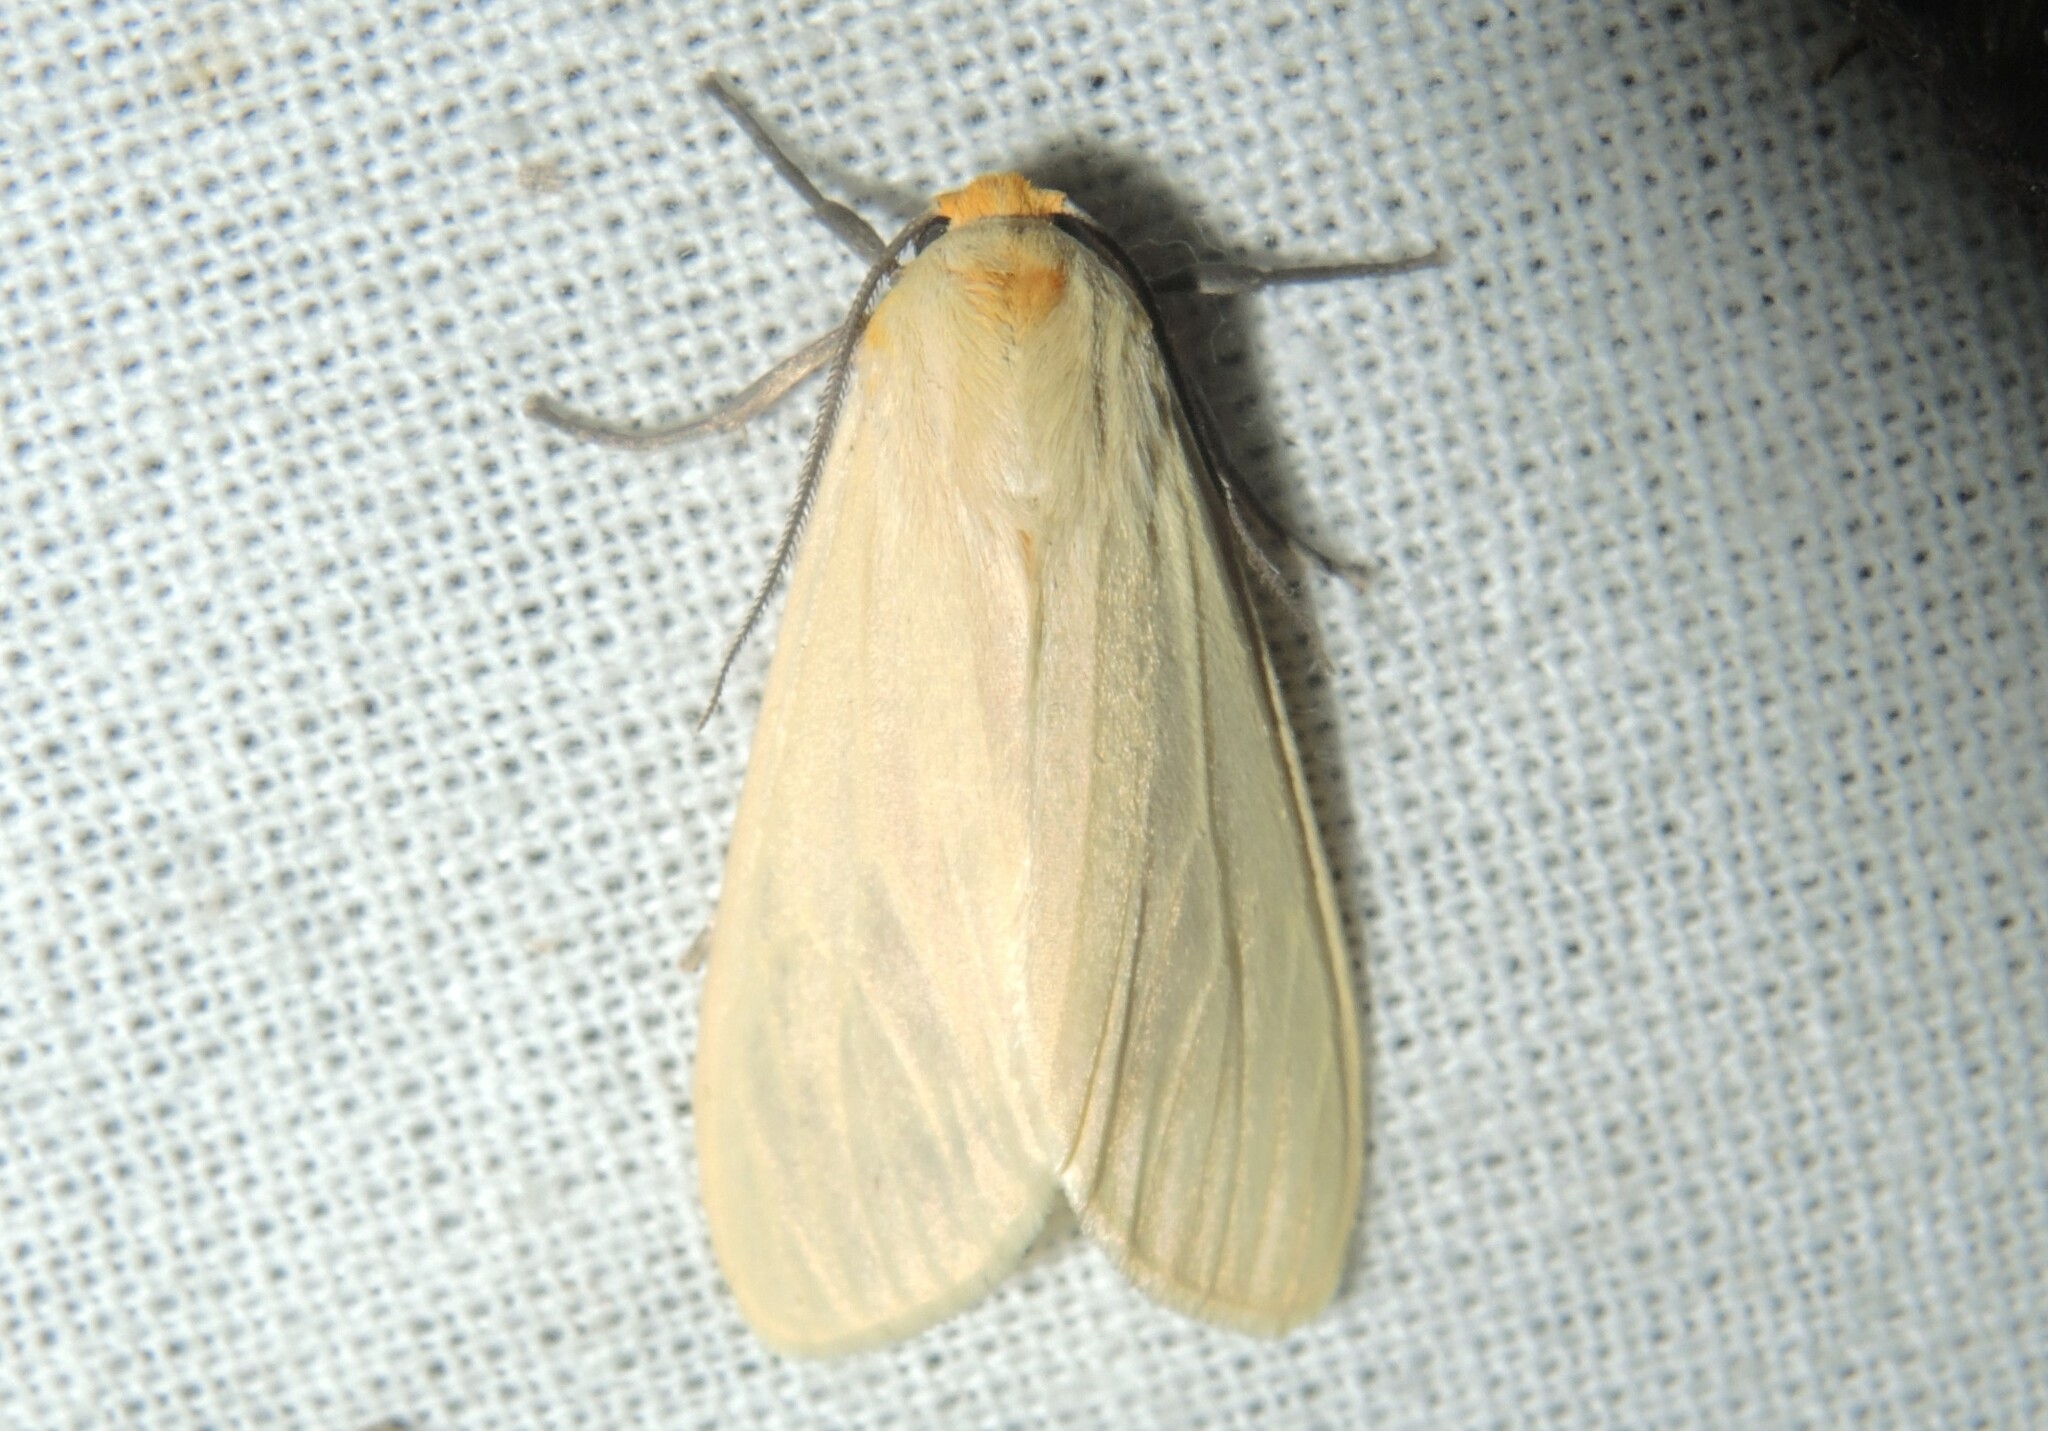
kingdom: Animalia
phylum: Arthropoda
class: Insecta
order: Lepidoptera
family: Erebidae
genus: Pareuchaetes
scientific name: Pareuchaetes pseudoinsulata
